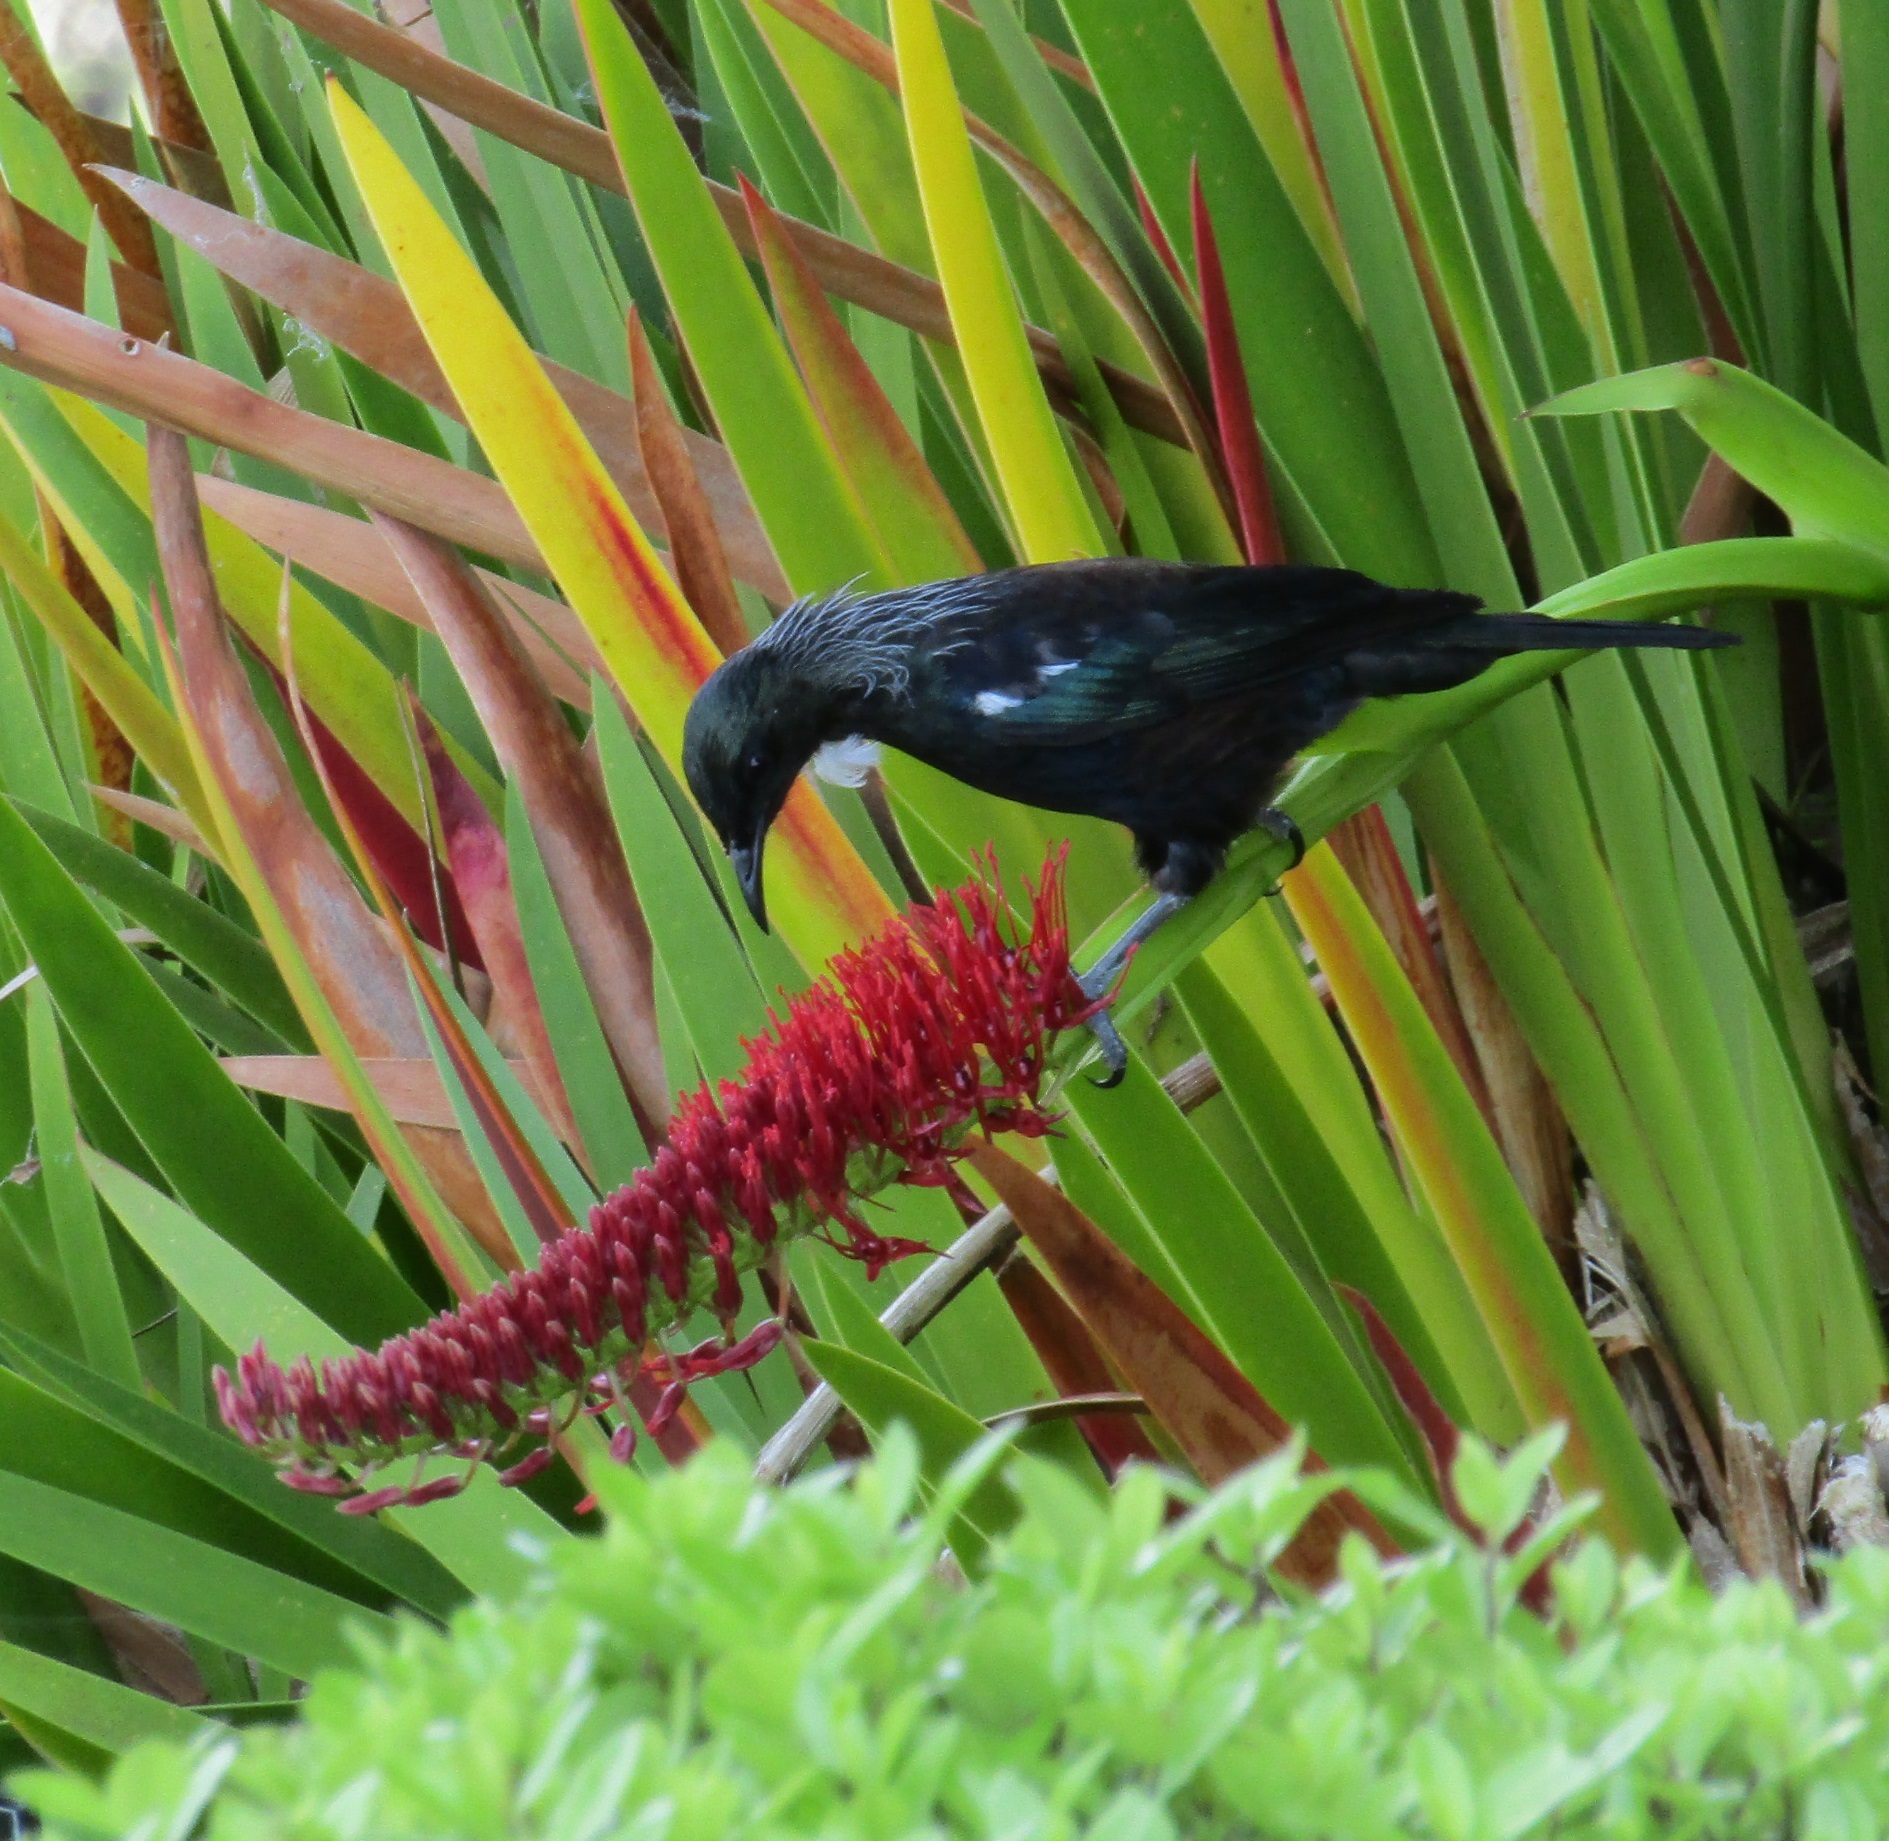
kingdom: Animalia
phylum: Chordata
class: Aves
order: Passeriformes
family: Meliphagidae
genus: Prosthemadera
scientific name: Prosthemadera novaeseelandiae
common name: Tui
